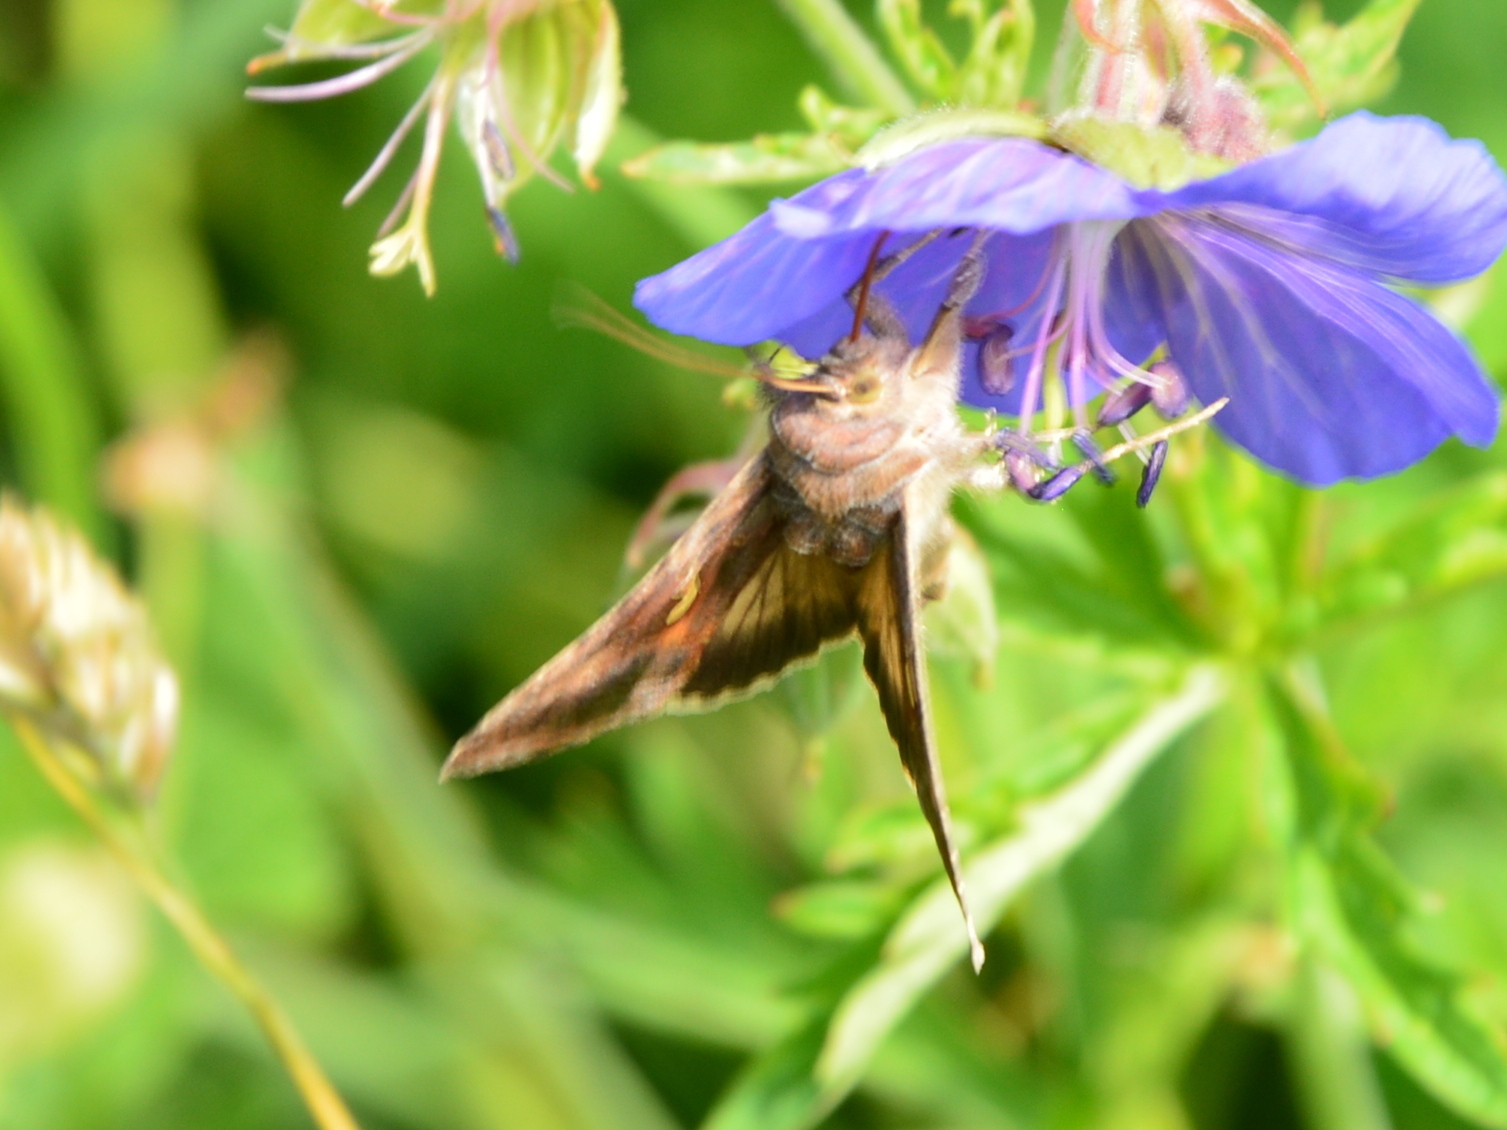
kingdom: Animalia
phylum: Arthropoda
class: Insecta
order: Lepidoptera
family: Noctuidae
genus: Autographa
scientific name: Autographa gamma
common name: Silver y
